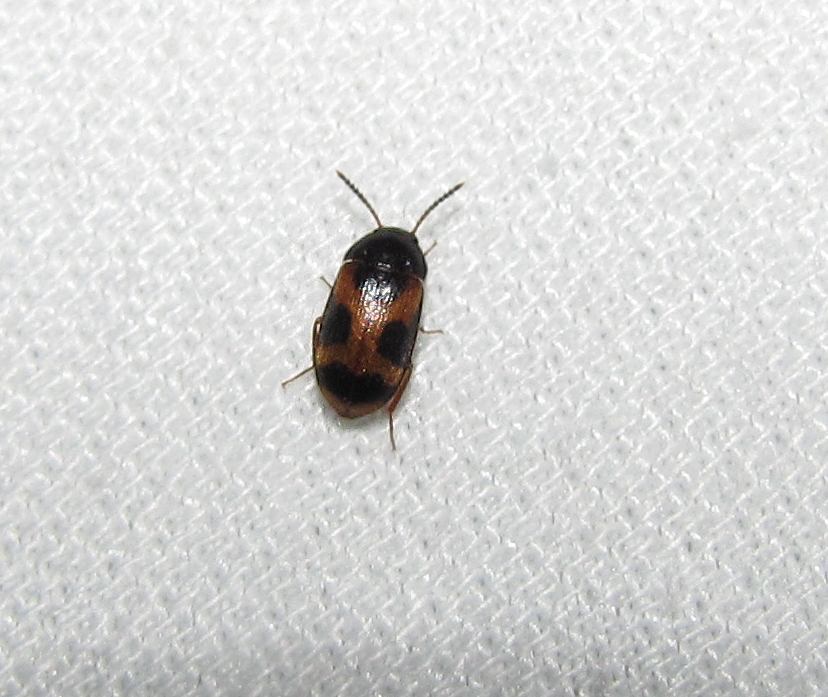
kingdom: Animalia
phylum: Arthropoda
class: Insecta
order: Coleoptera
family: Mycetophagidae
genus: Mycetophagus
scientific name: Mycetophagus punctatus
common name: Hairy fungus beetle
